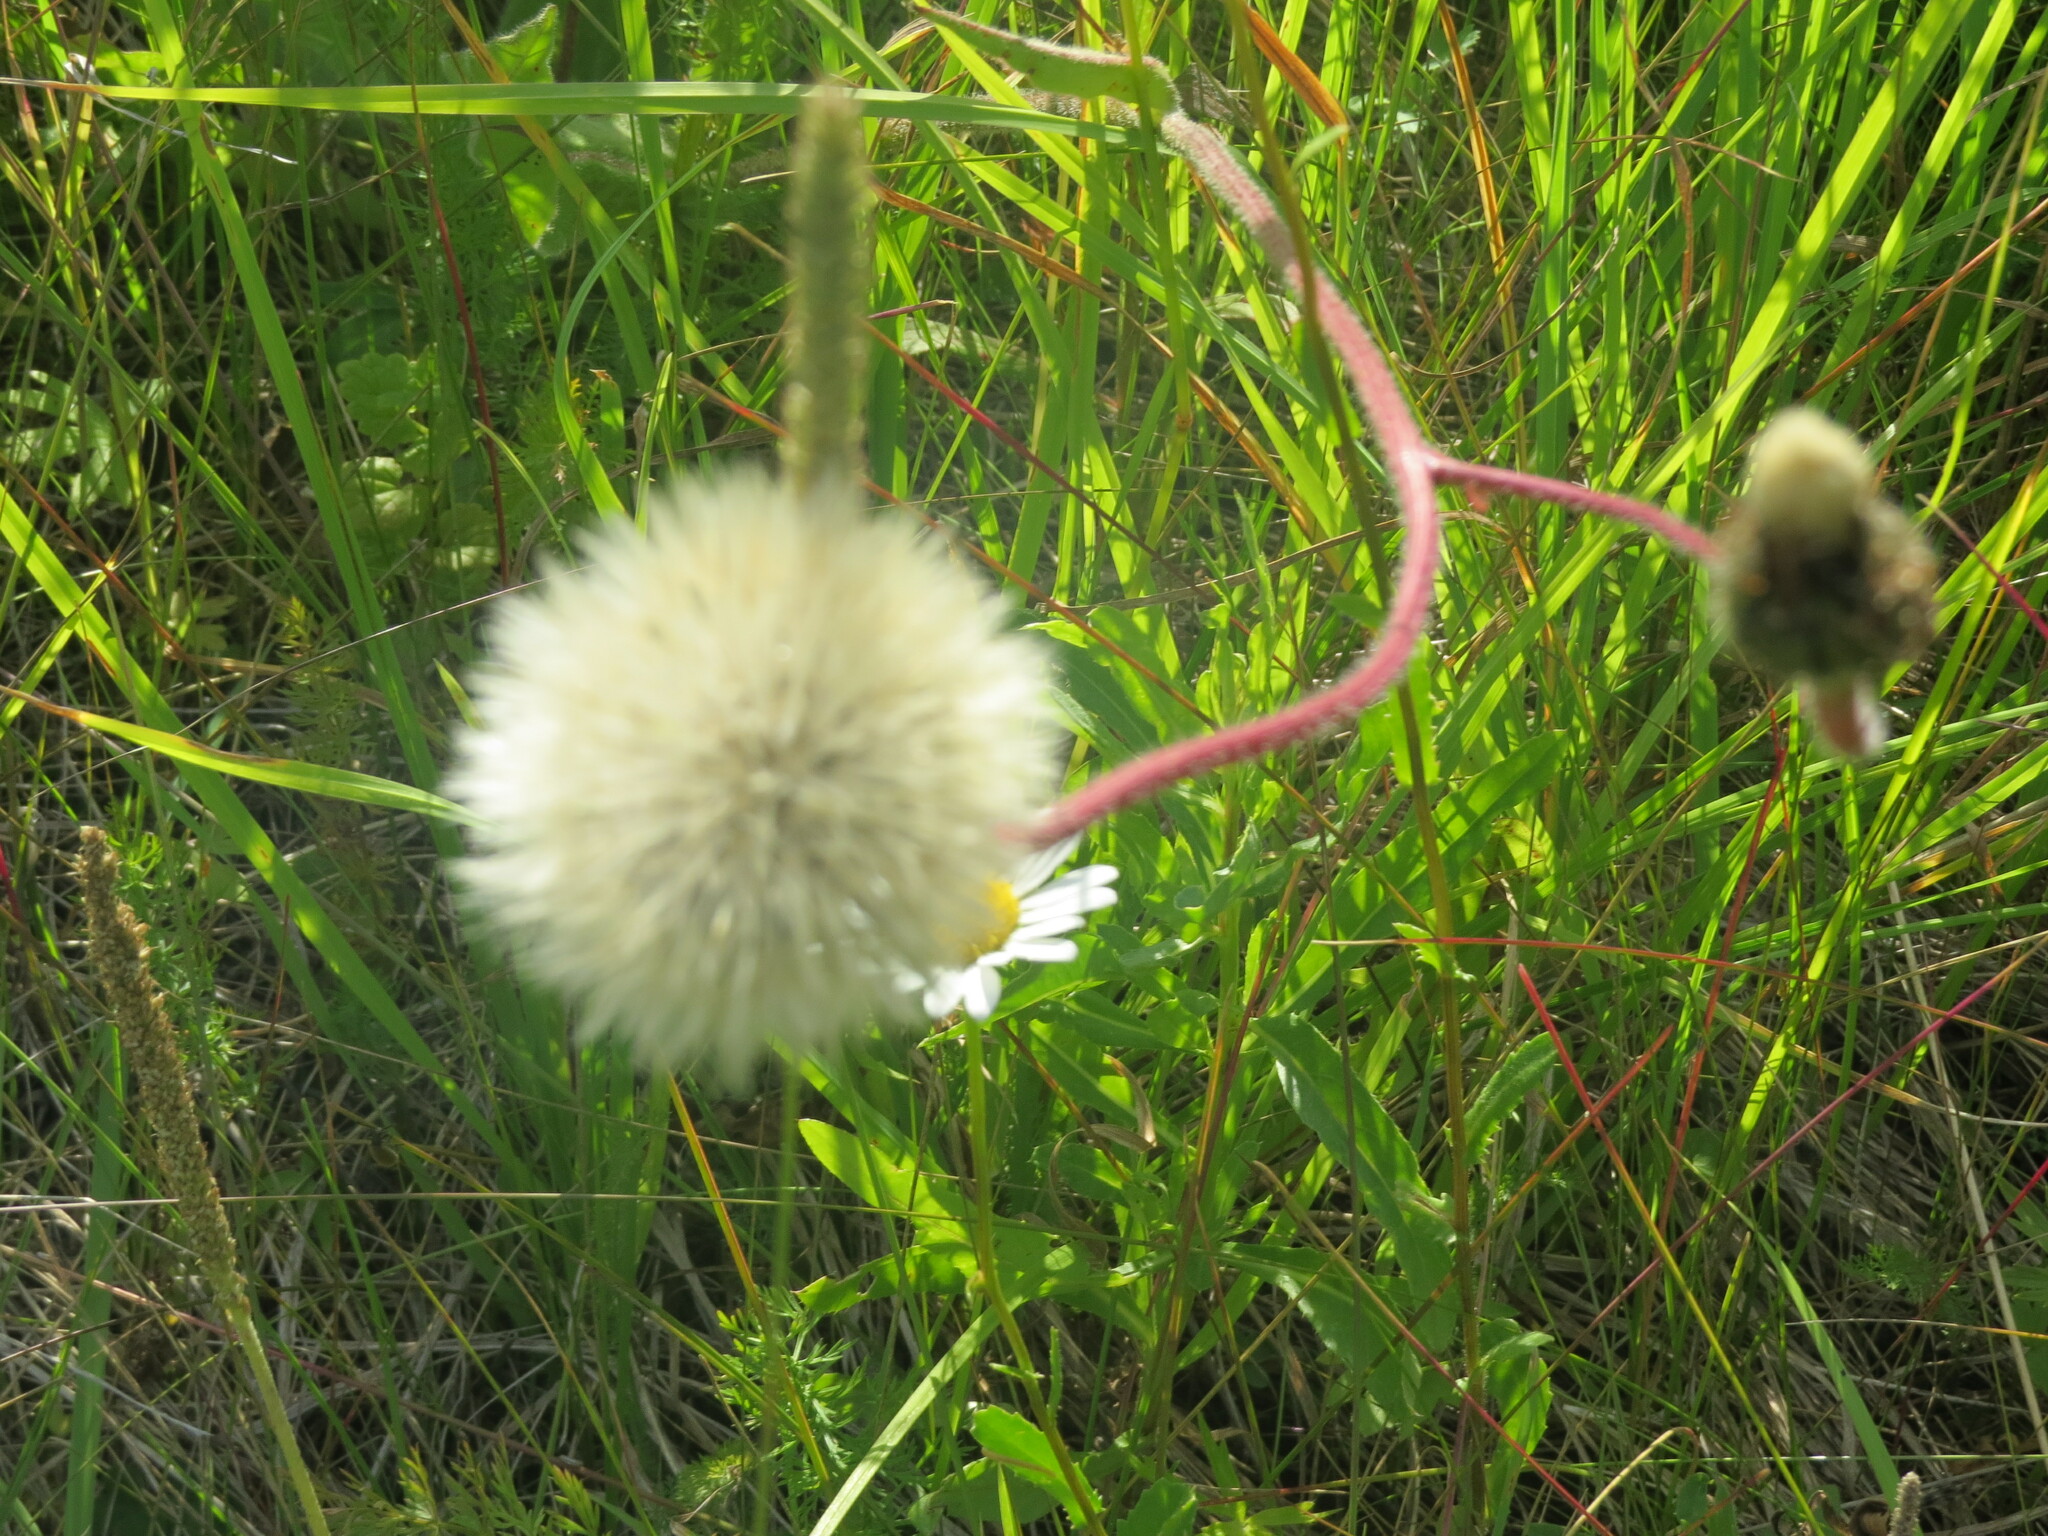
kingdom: Plantae
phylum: Tracheophyta
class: Magnoliopsida
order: Asterales
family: Asteraceae
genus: Trommsdorffia
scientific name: Trommsdorffia maculata
